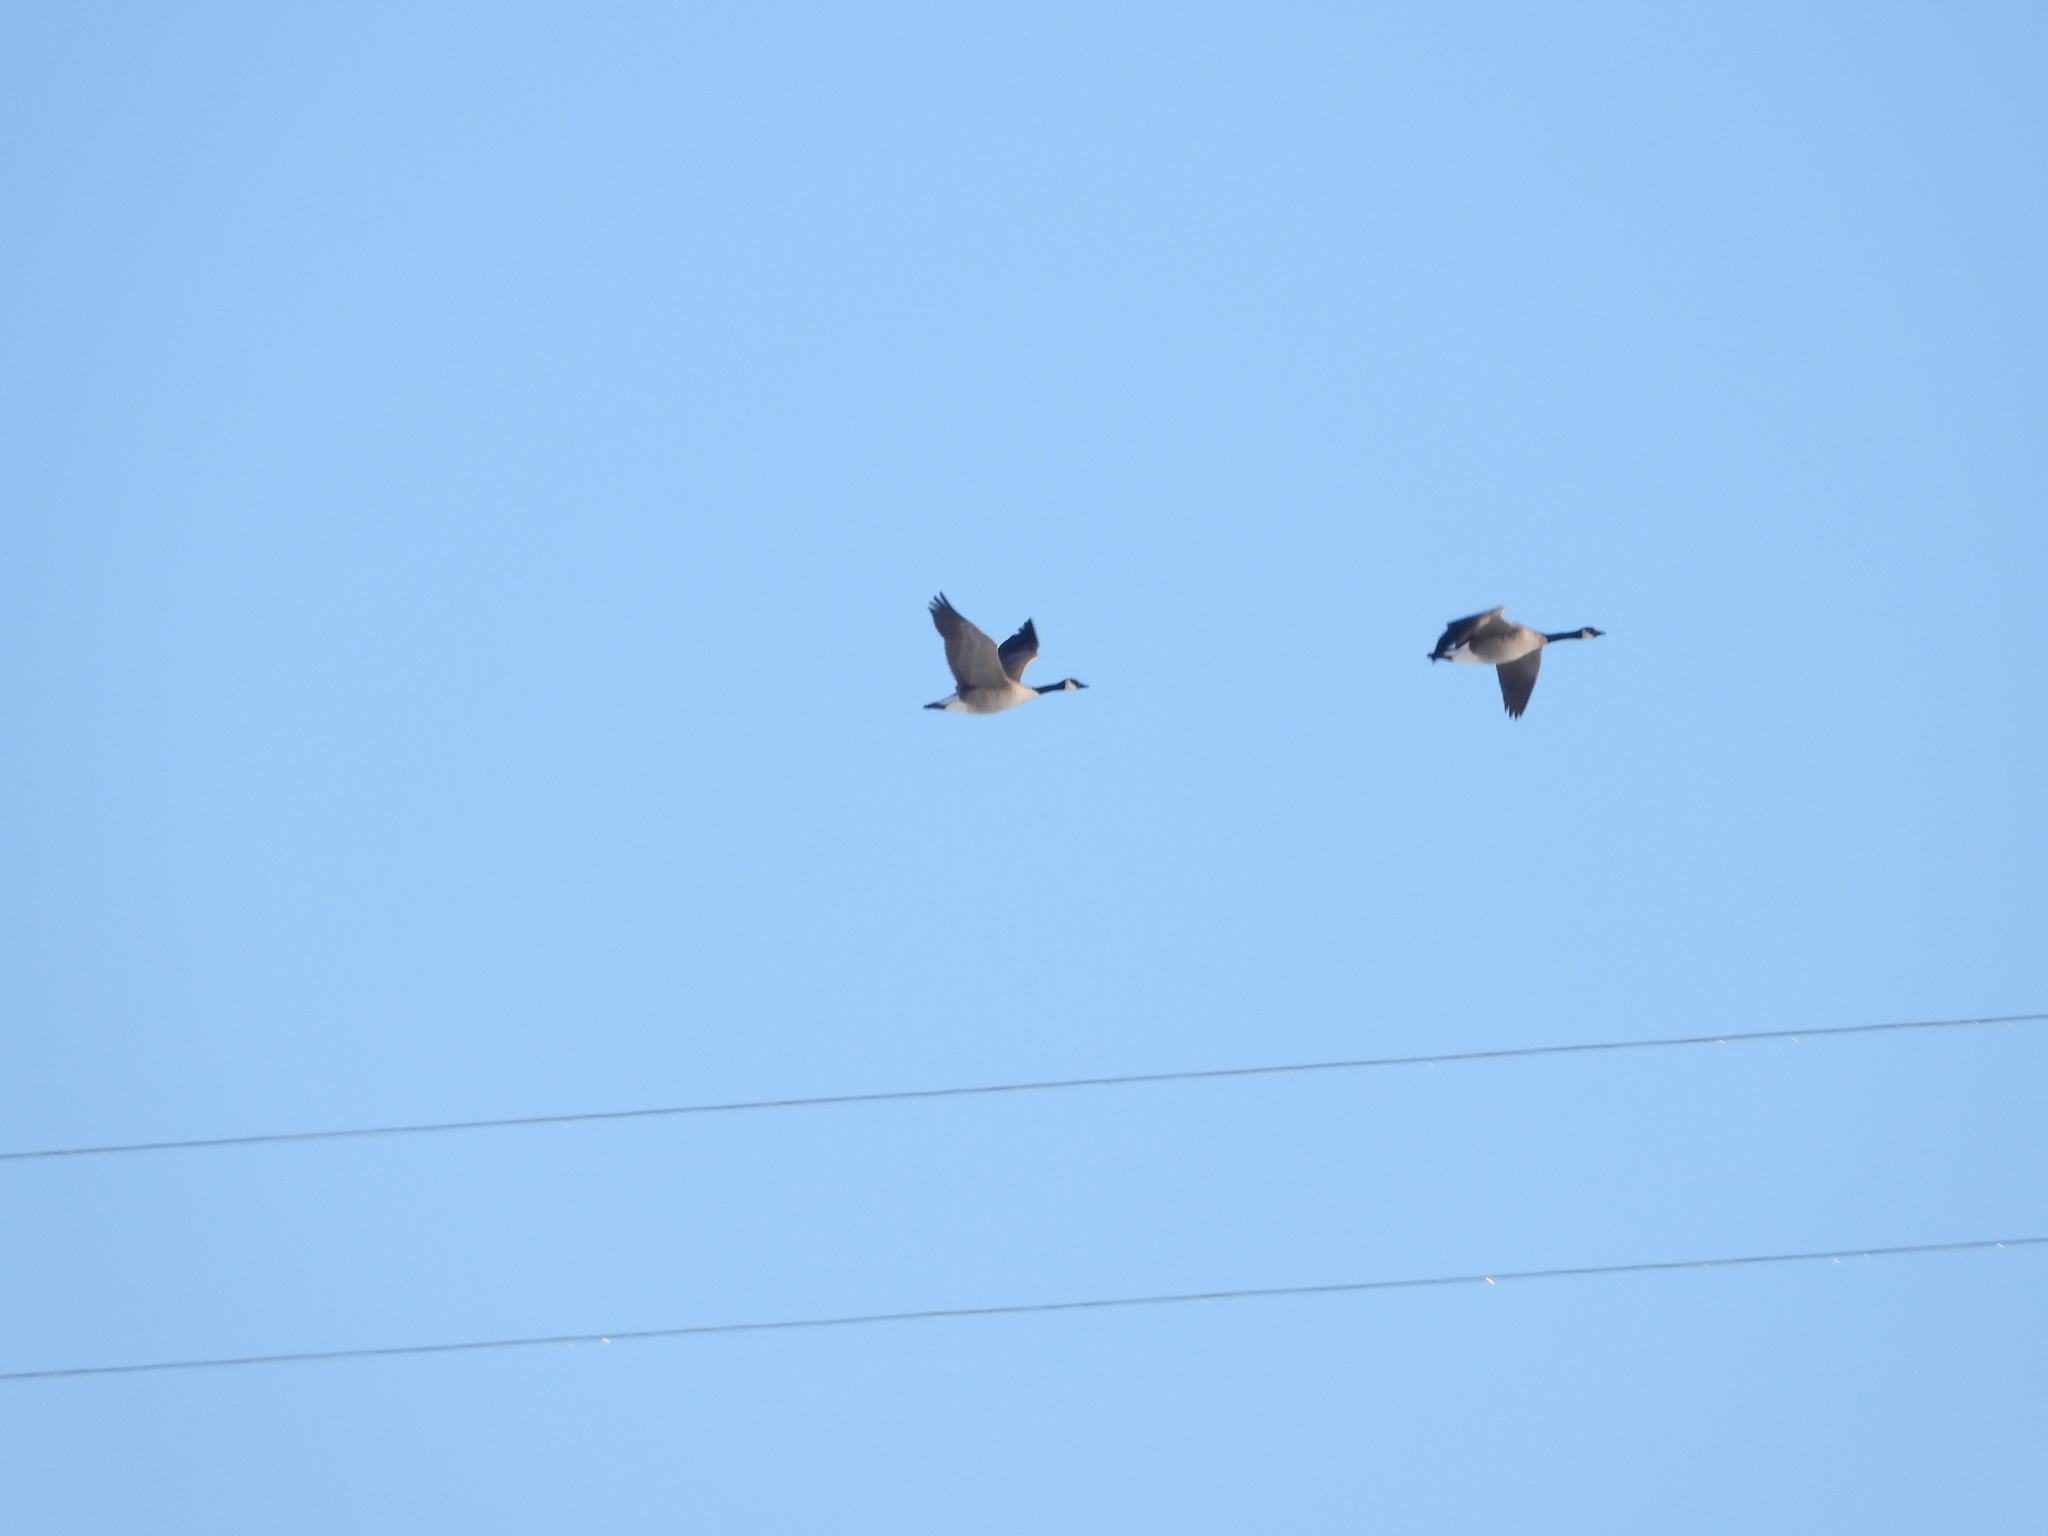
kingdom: Animalia
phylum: Chordata
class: Aves
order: Anseriformes
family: Anatidae
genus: Branta
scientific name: Branta canadensis
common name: Canada goose
